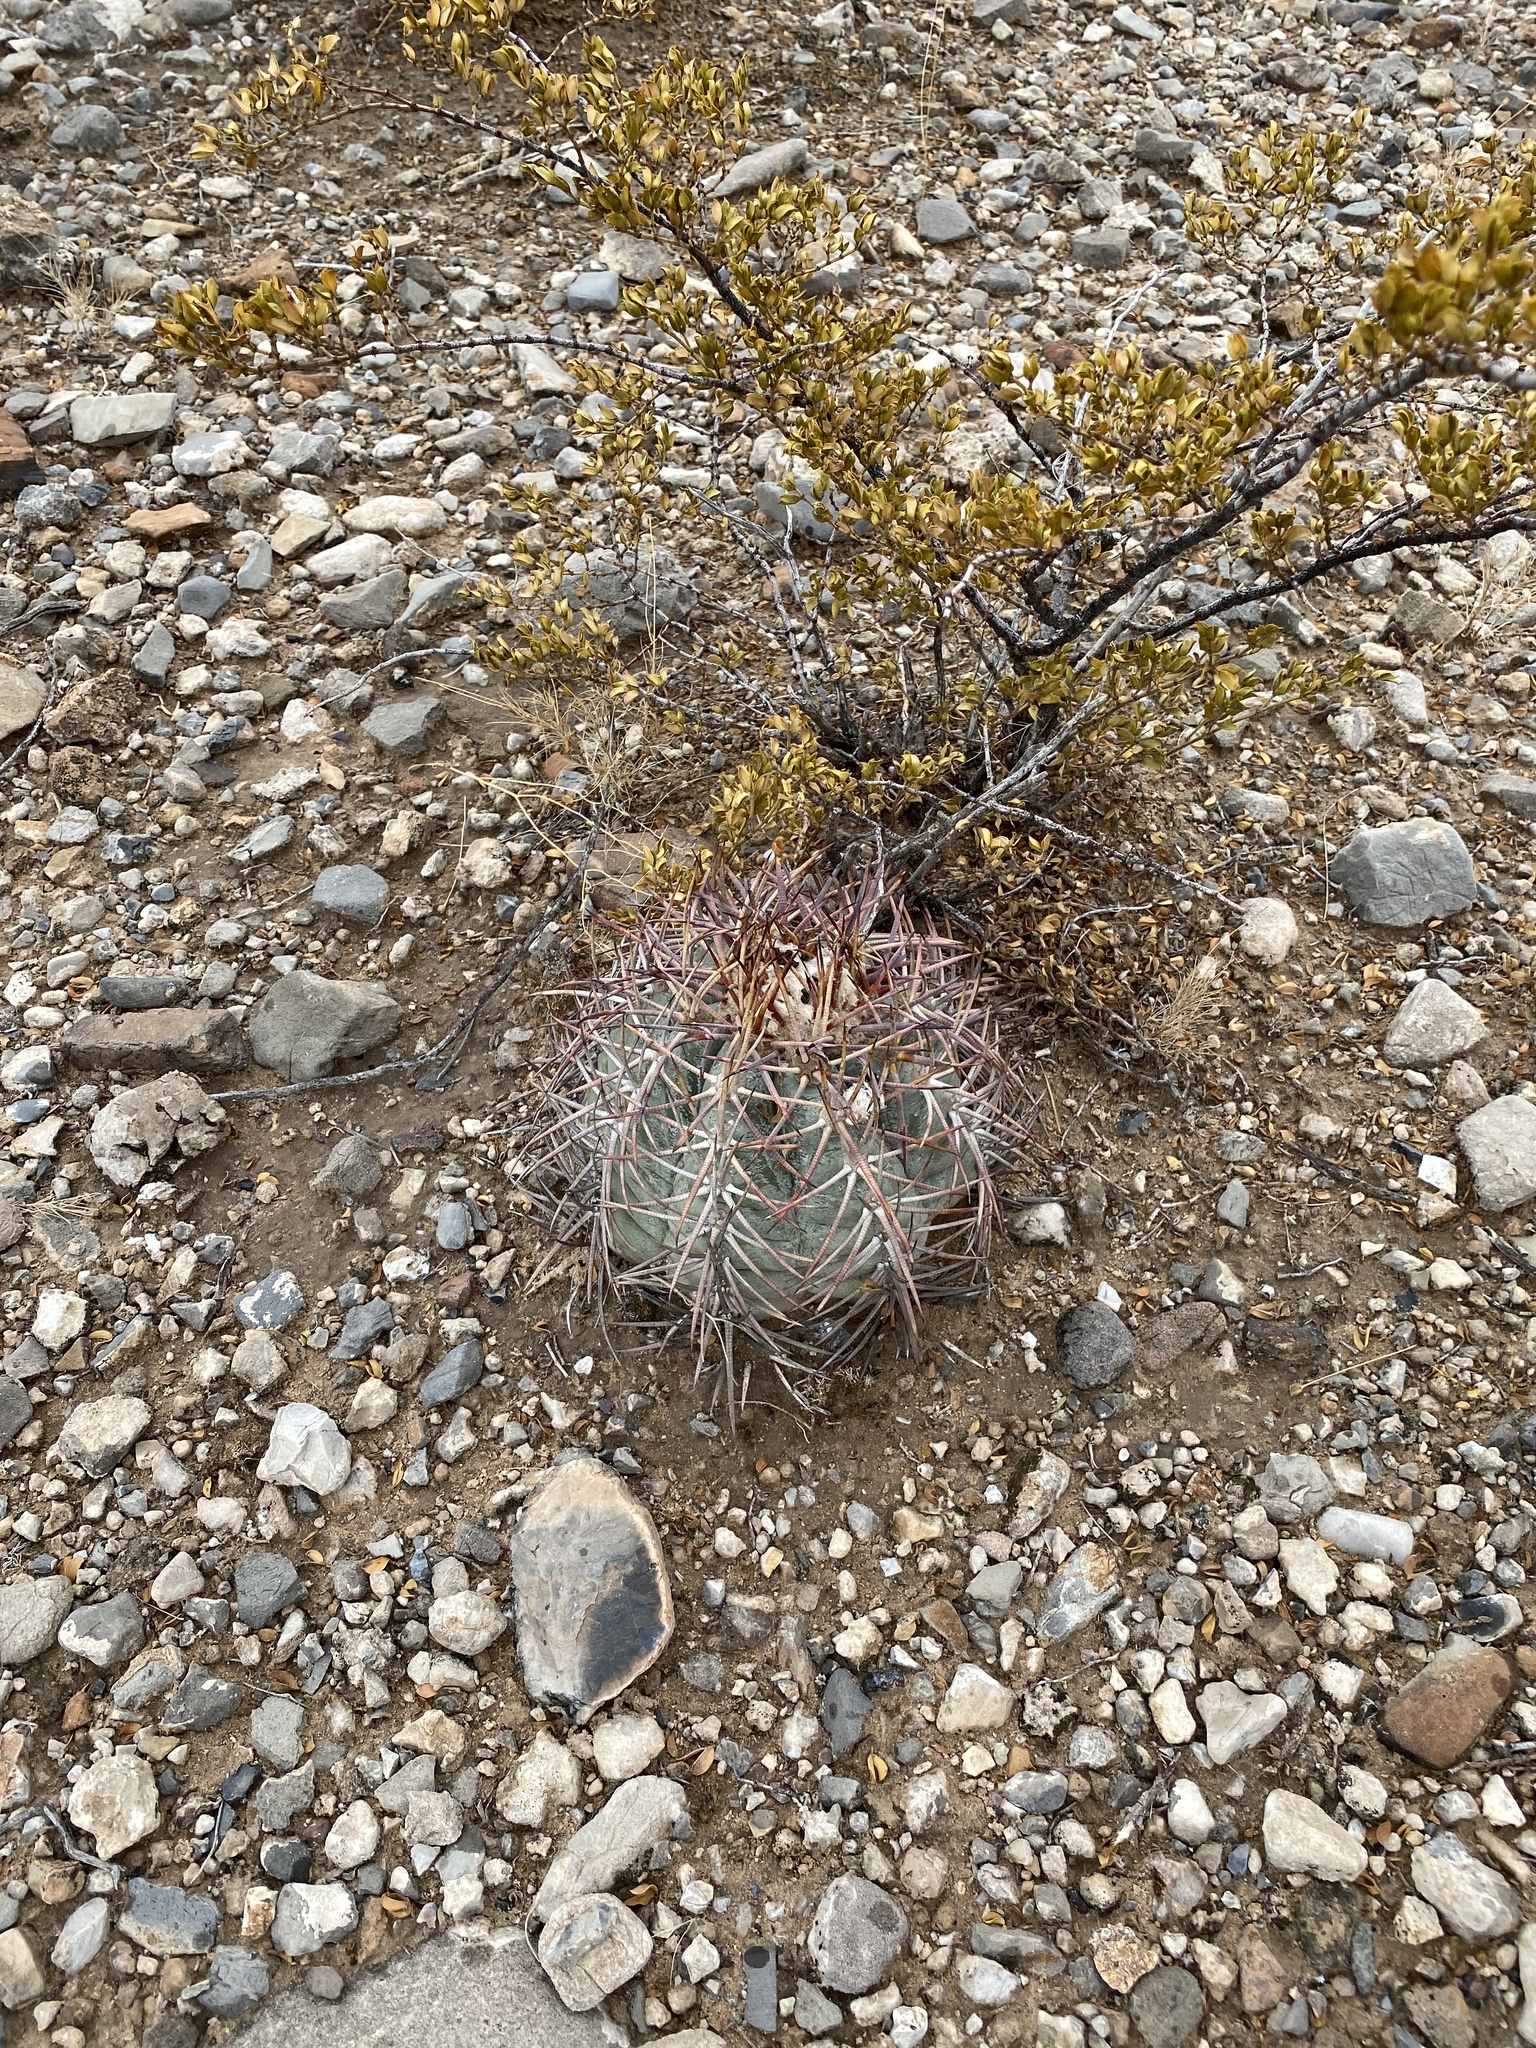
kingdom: Plantae
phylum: Tracheophyta
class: Magnoliopsida
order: Caryophyllales
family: Cactaceae
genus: Echinocactus
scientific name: Echinocactus horizonthalonius
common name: Devilshead
